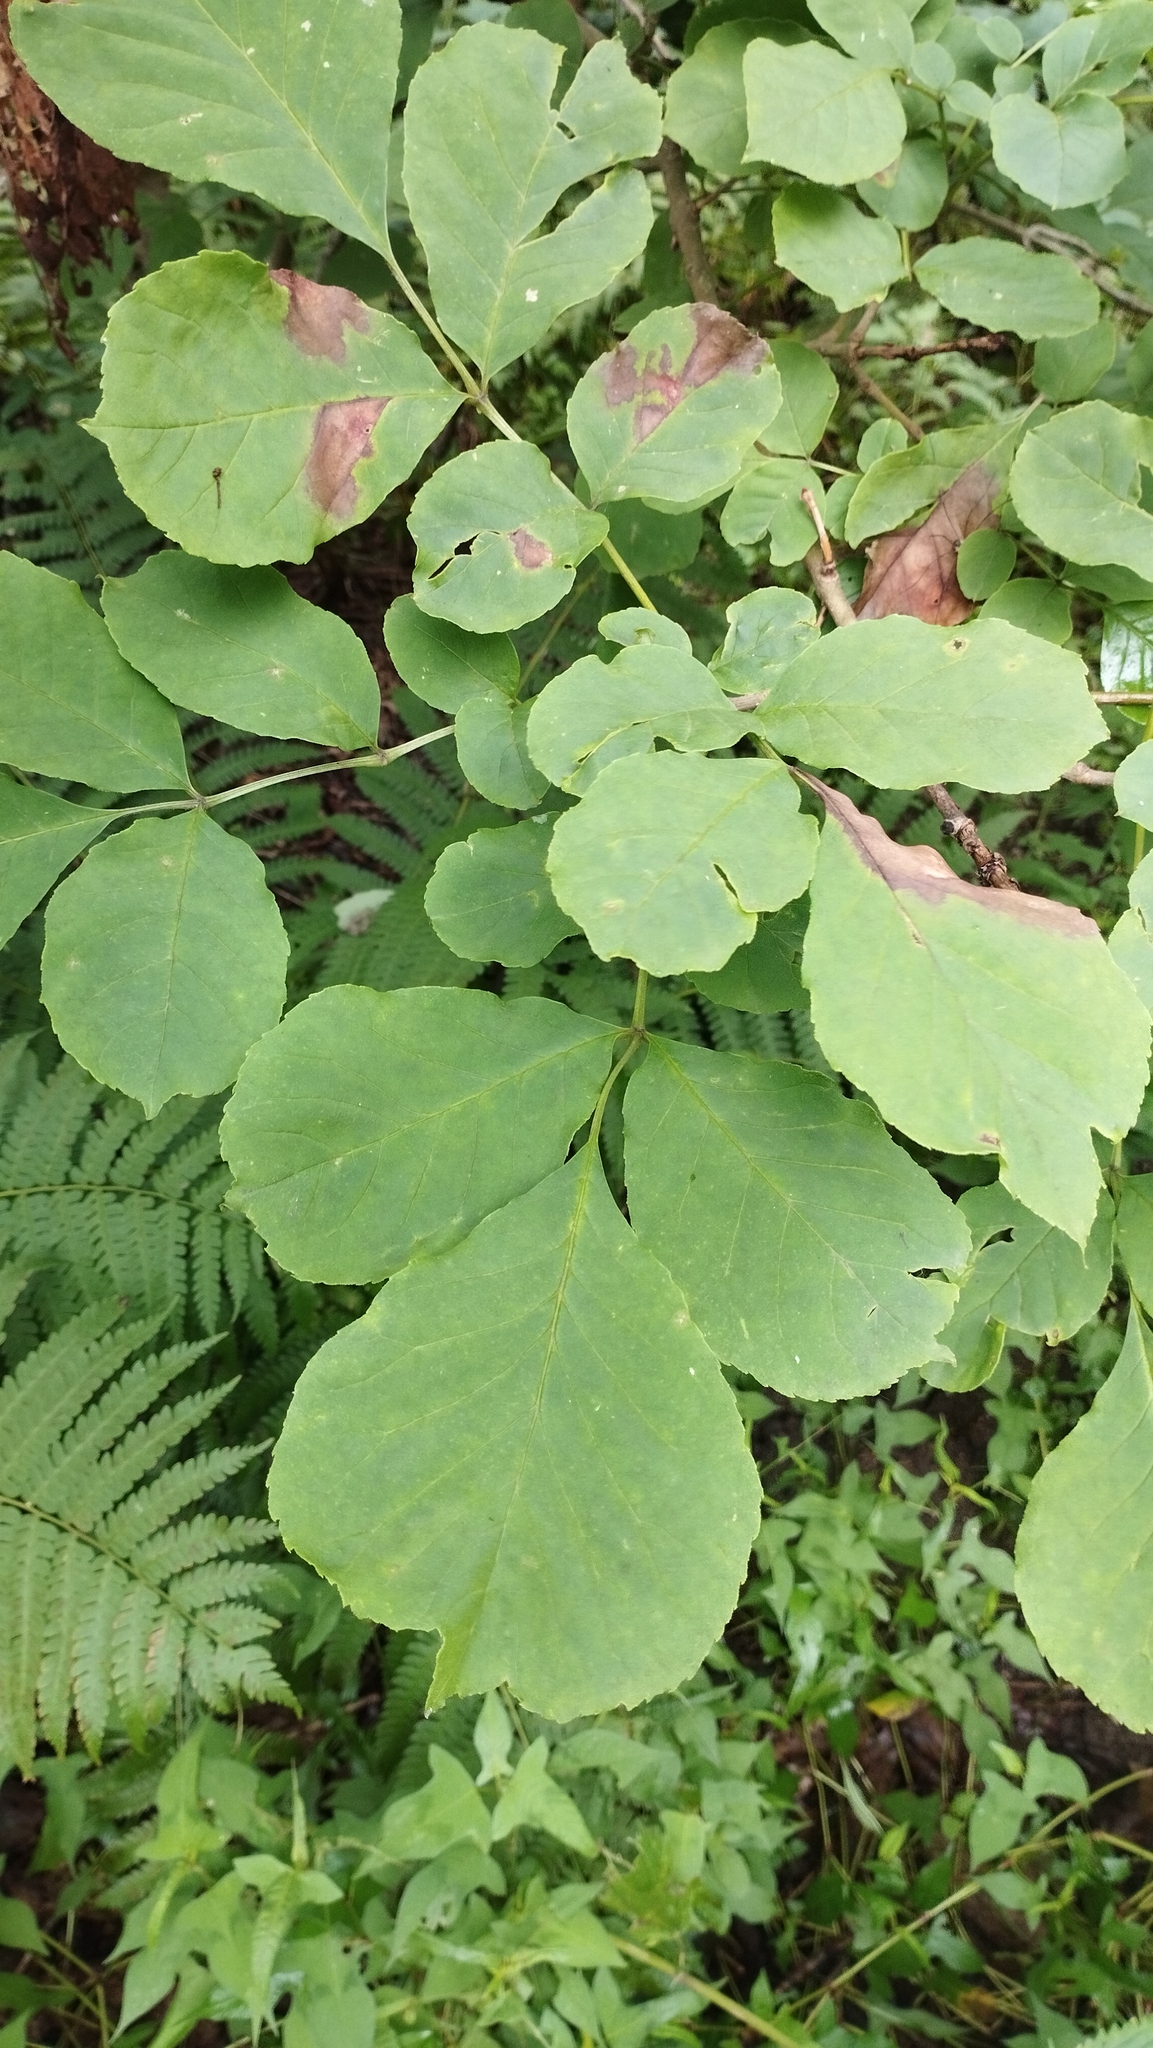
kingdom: Plantae
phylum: Tracheophyta
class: Magnoliopsida
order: Lamiales
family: Oleaceae
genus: Fraxinus
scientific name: Fraxinus chinensis
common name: Chinese ash
